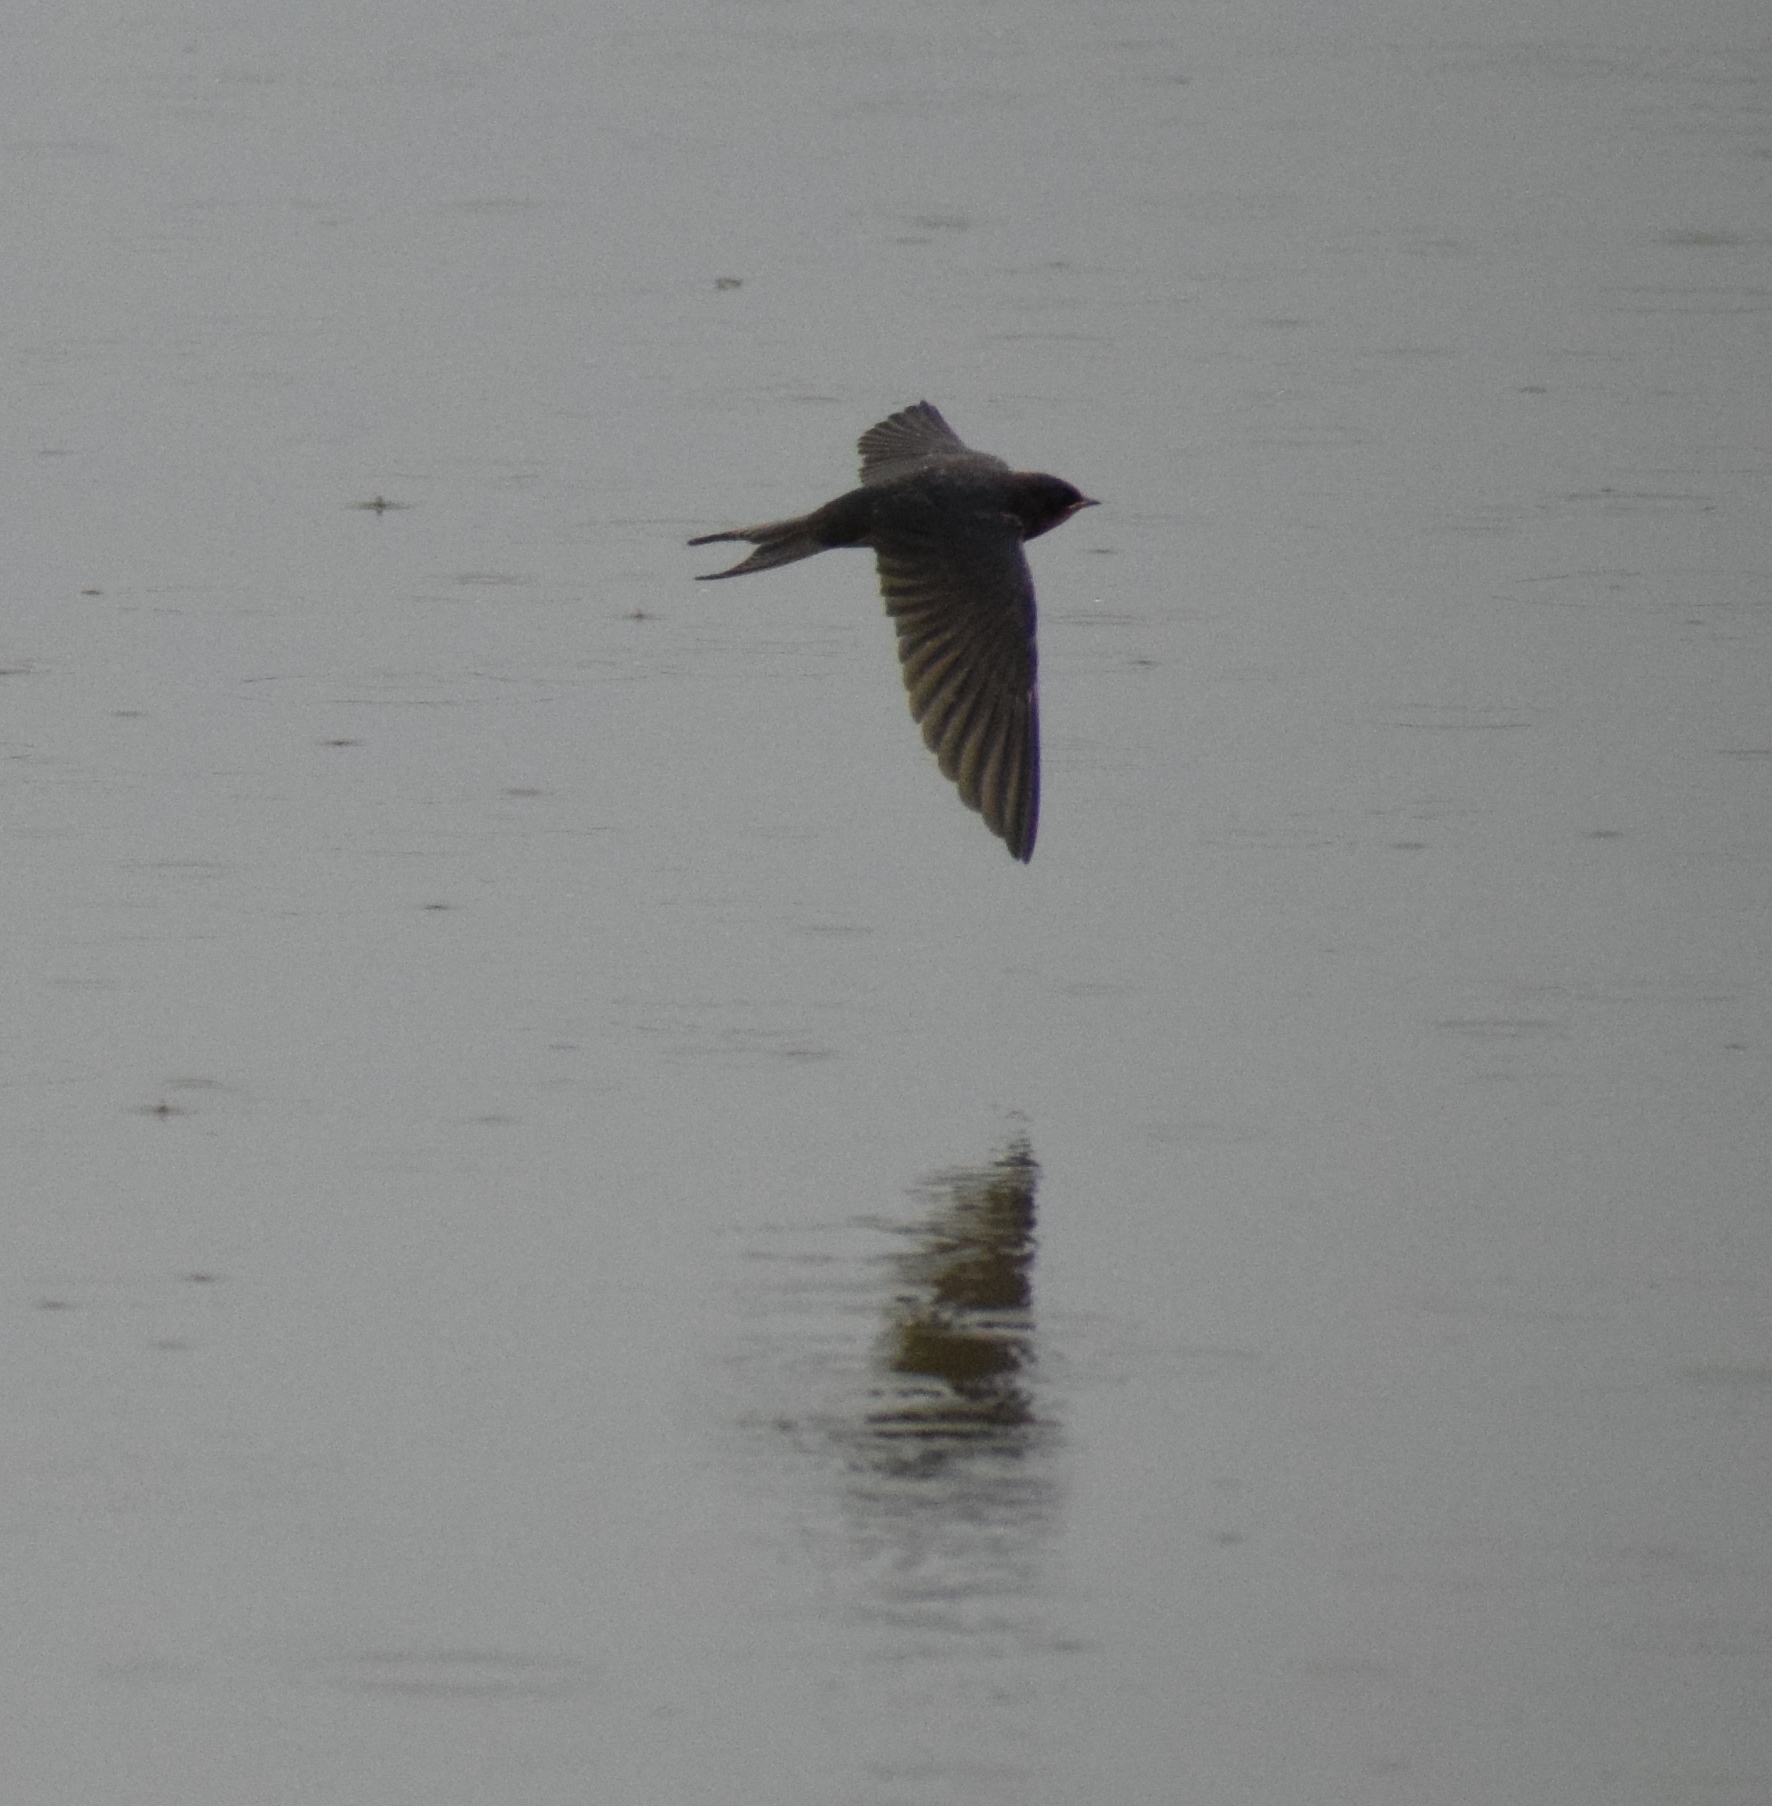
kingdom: Animalia
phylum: Chordata
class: Aves
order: Passeriformes
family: Hirundinidae
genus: Hirundo
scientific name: Hirundo rustica
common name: Barn swallow
